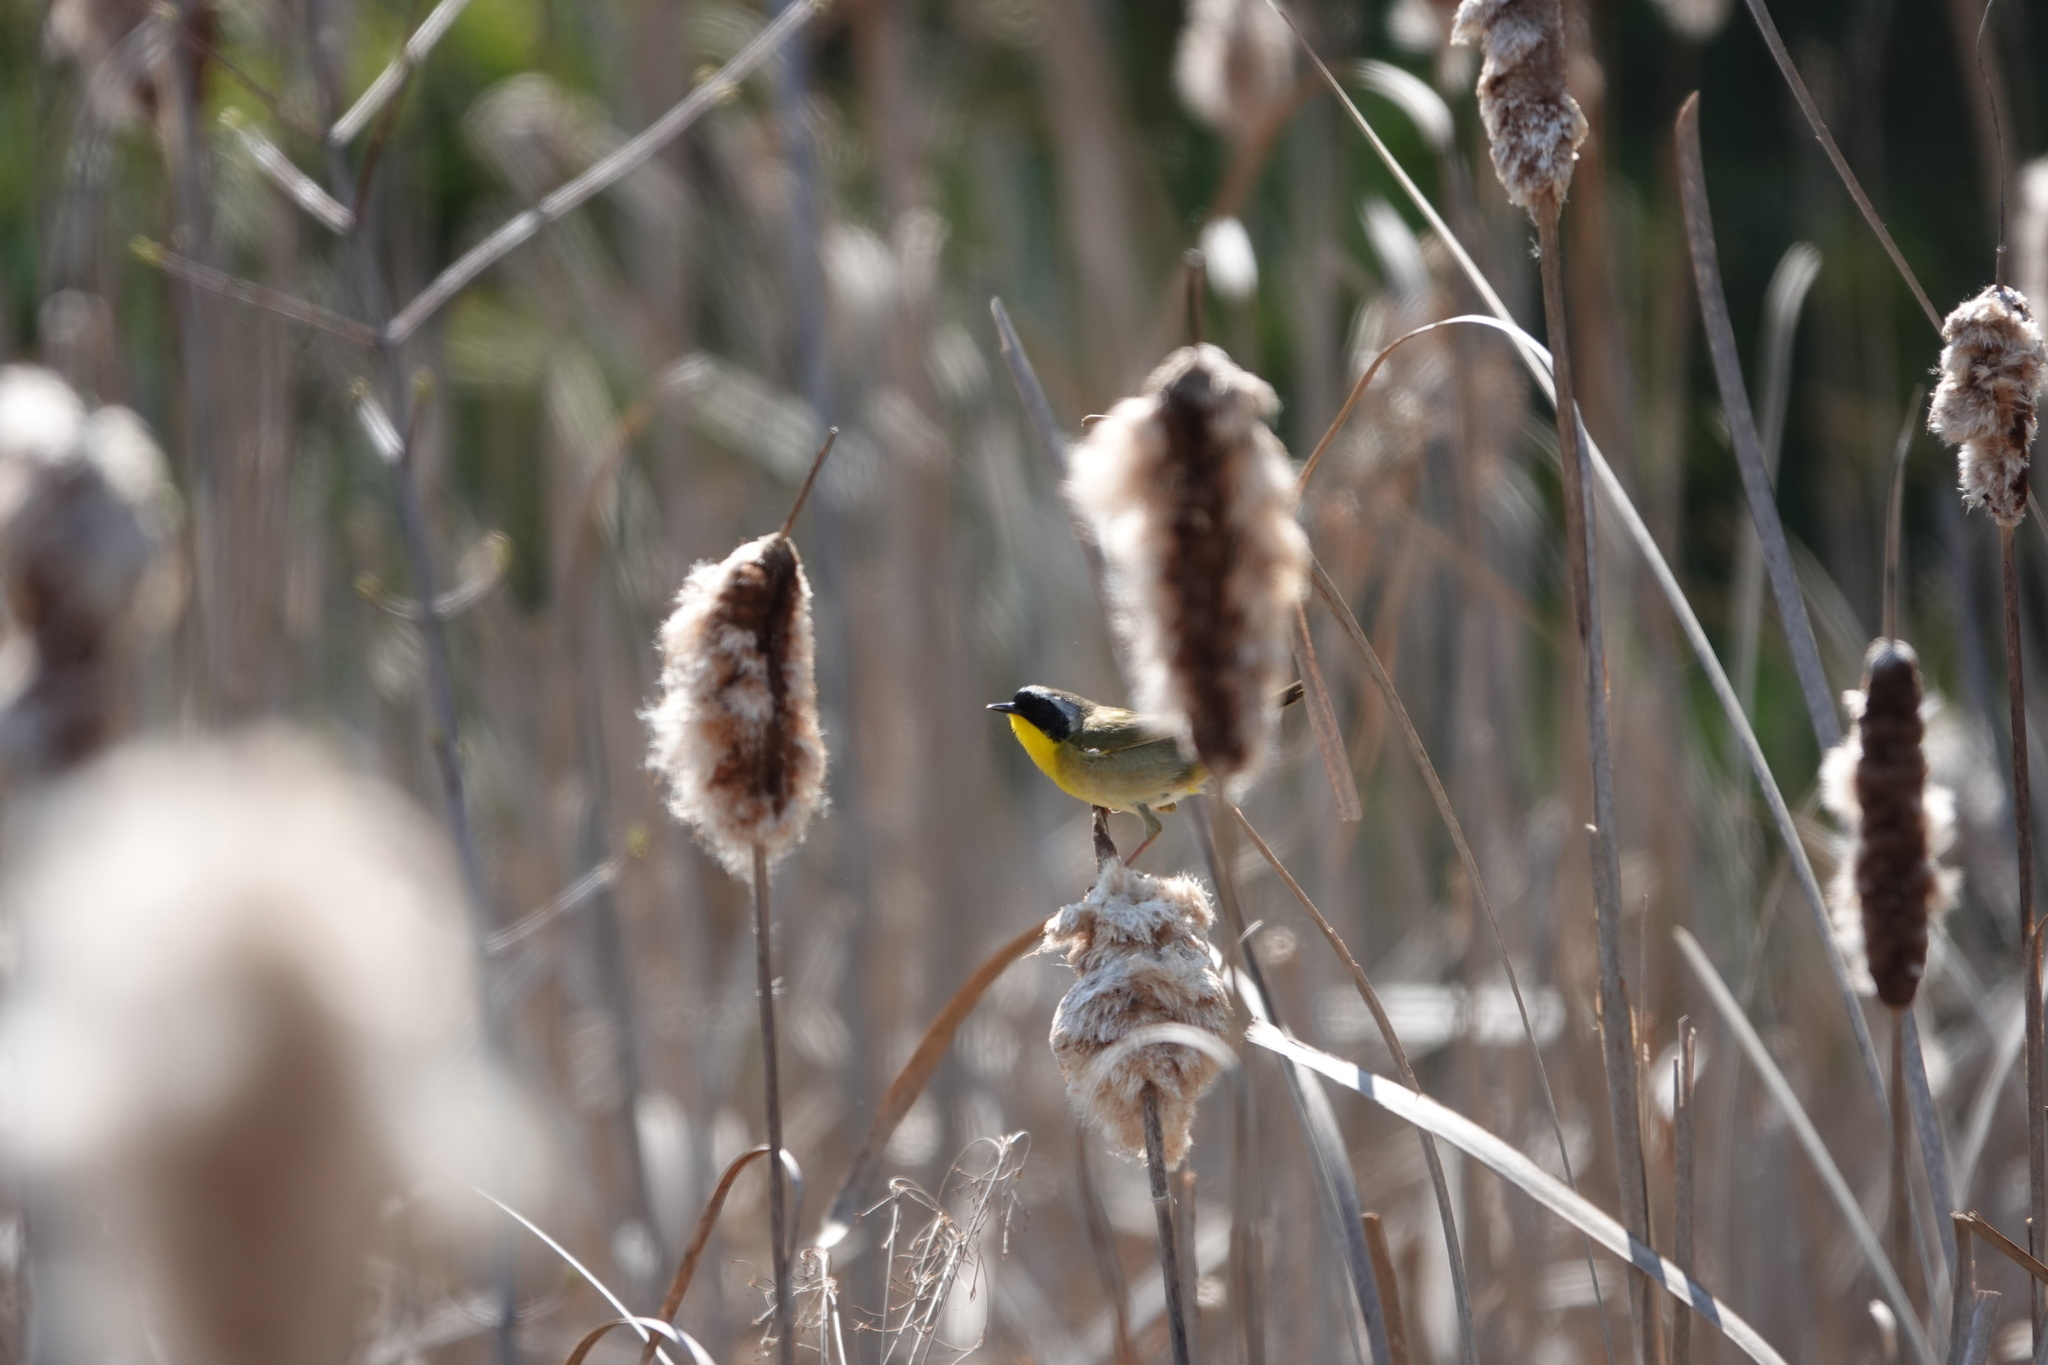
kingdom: Animalia
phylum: Chordata
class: Aves
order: Passeriformes
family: Parulidae
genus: Geothlypis
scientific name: Geothlypis trichas
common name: Common yellowthroat
